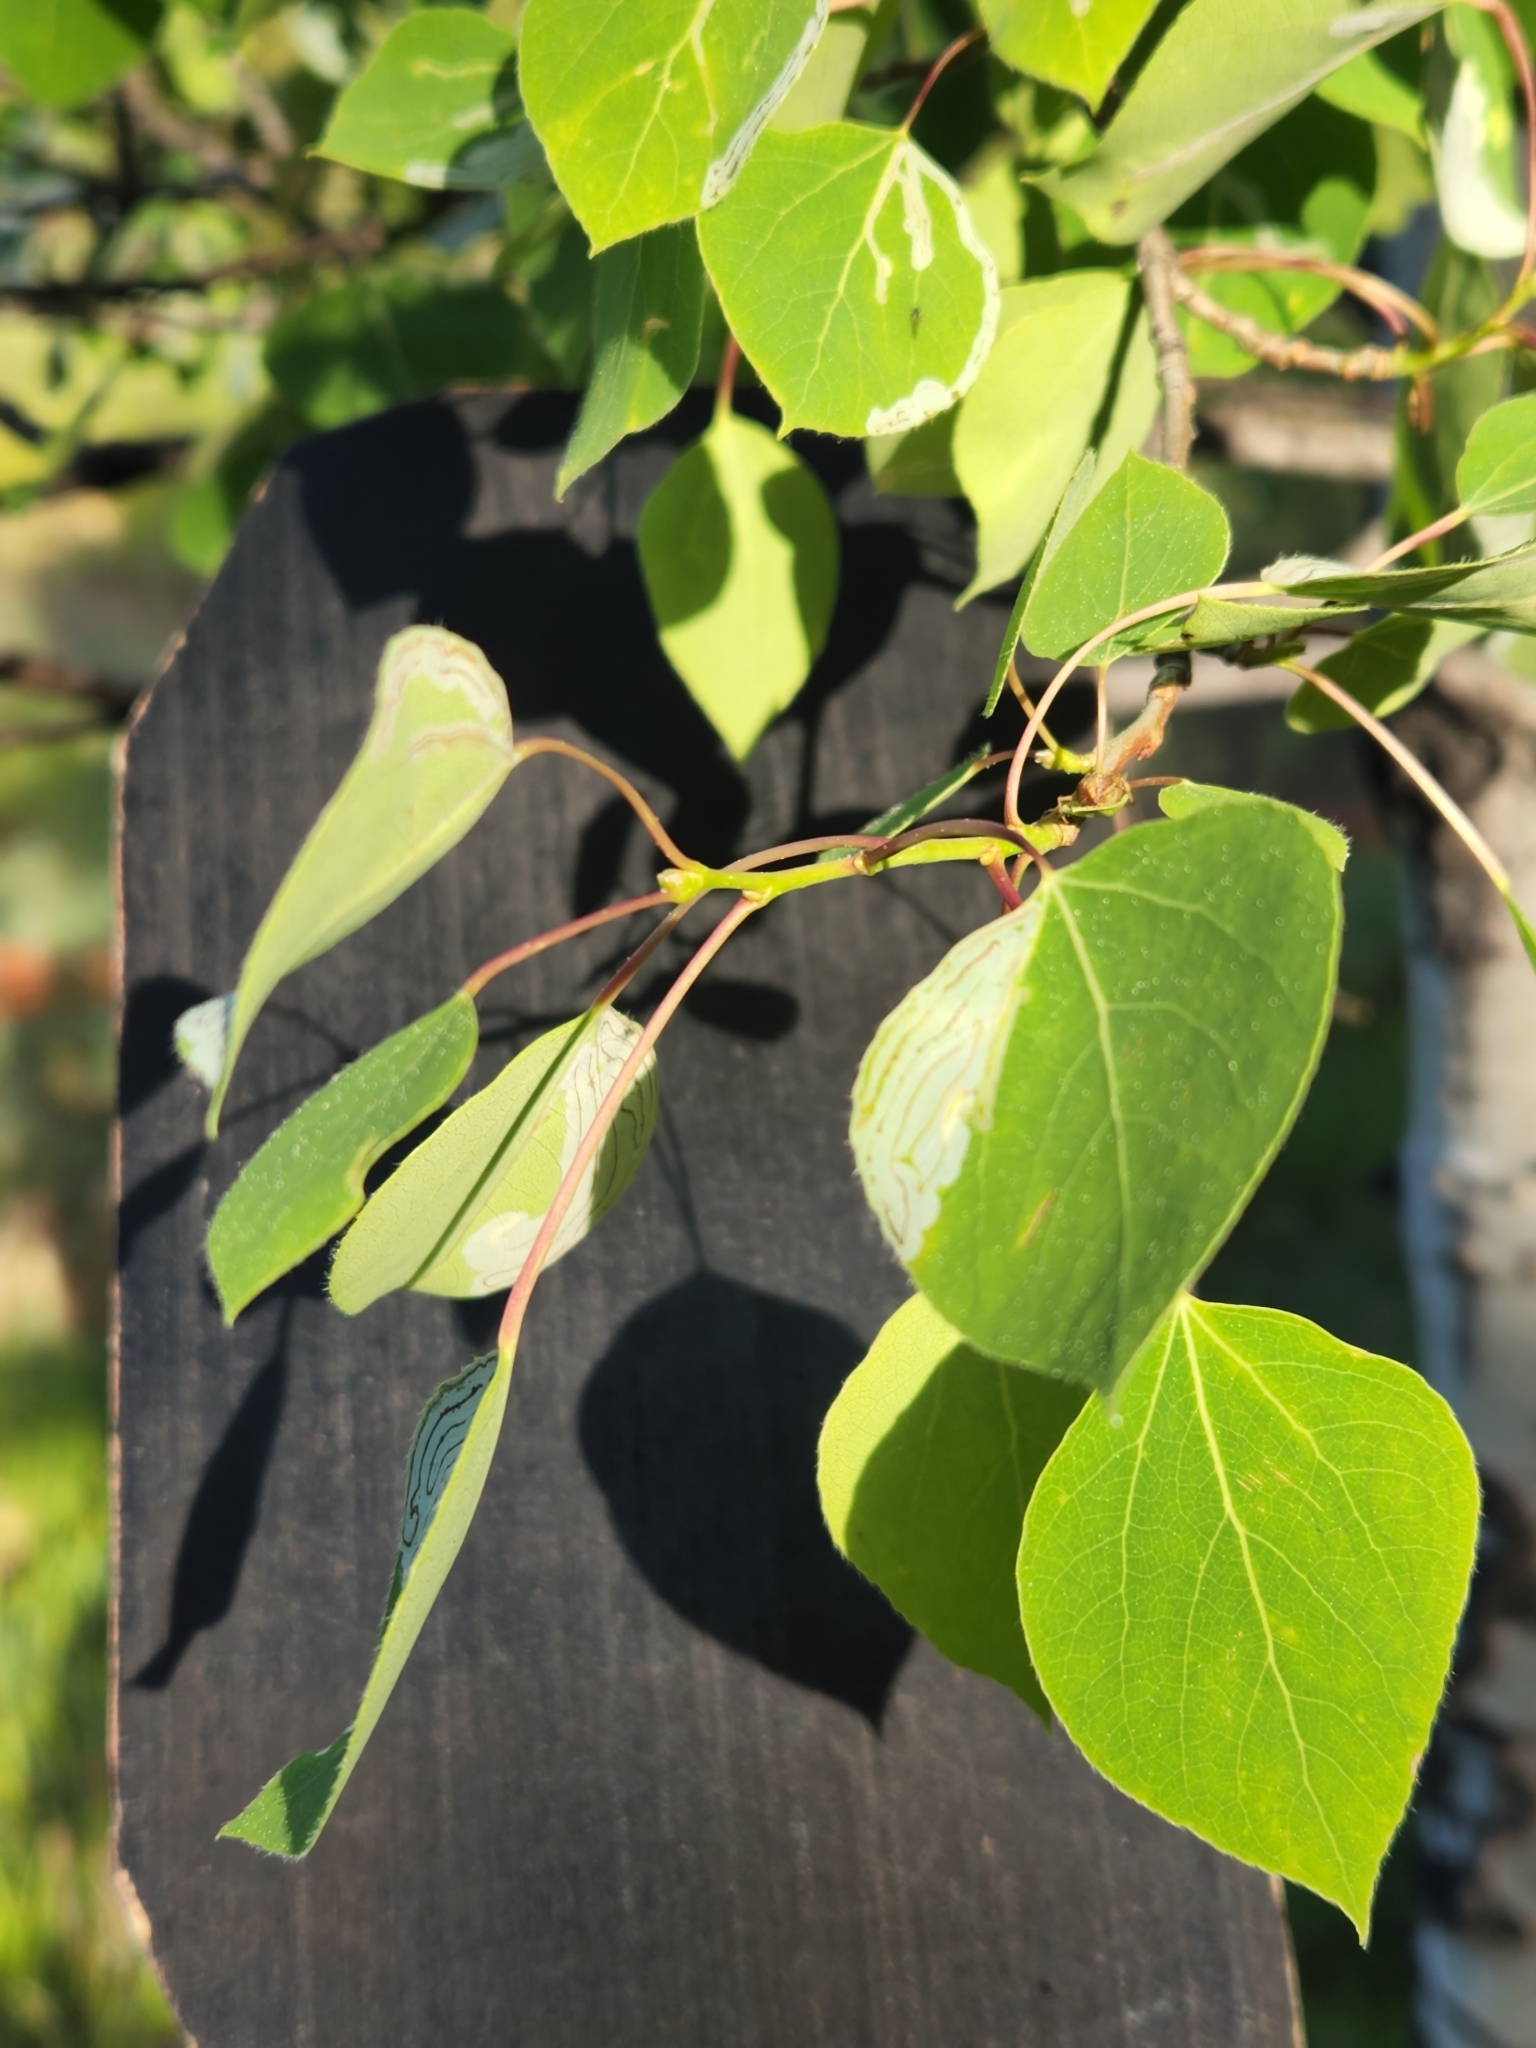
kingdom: Plantae
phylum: Tracheophyta
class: Magnoliopsida
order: Malpighiales
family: Salicaceae
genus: Populus
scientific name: Populus tremuloides
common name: Quaking aspen
